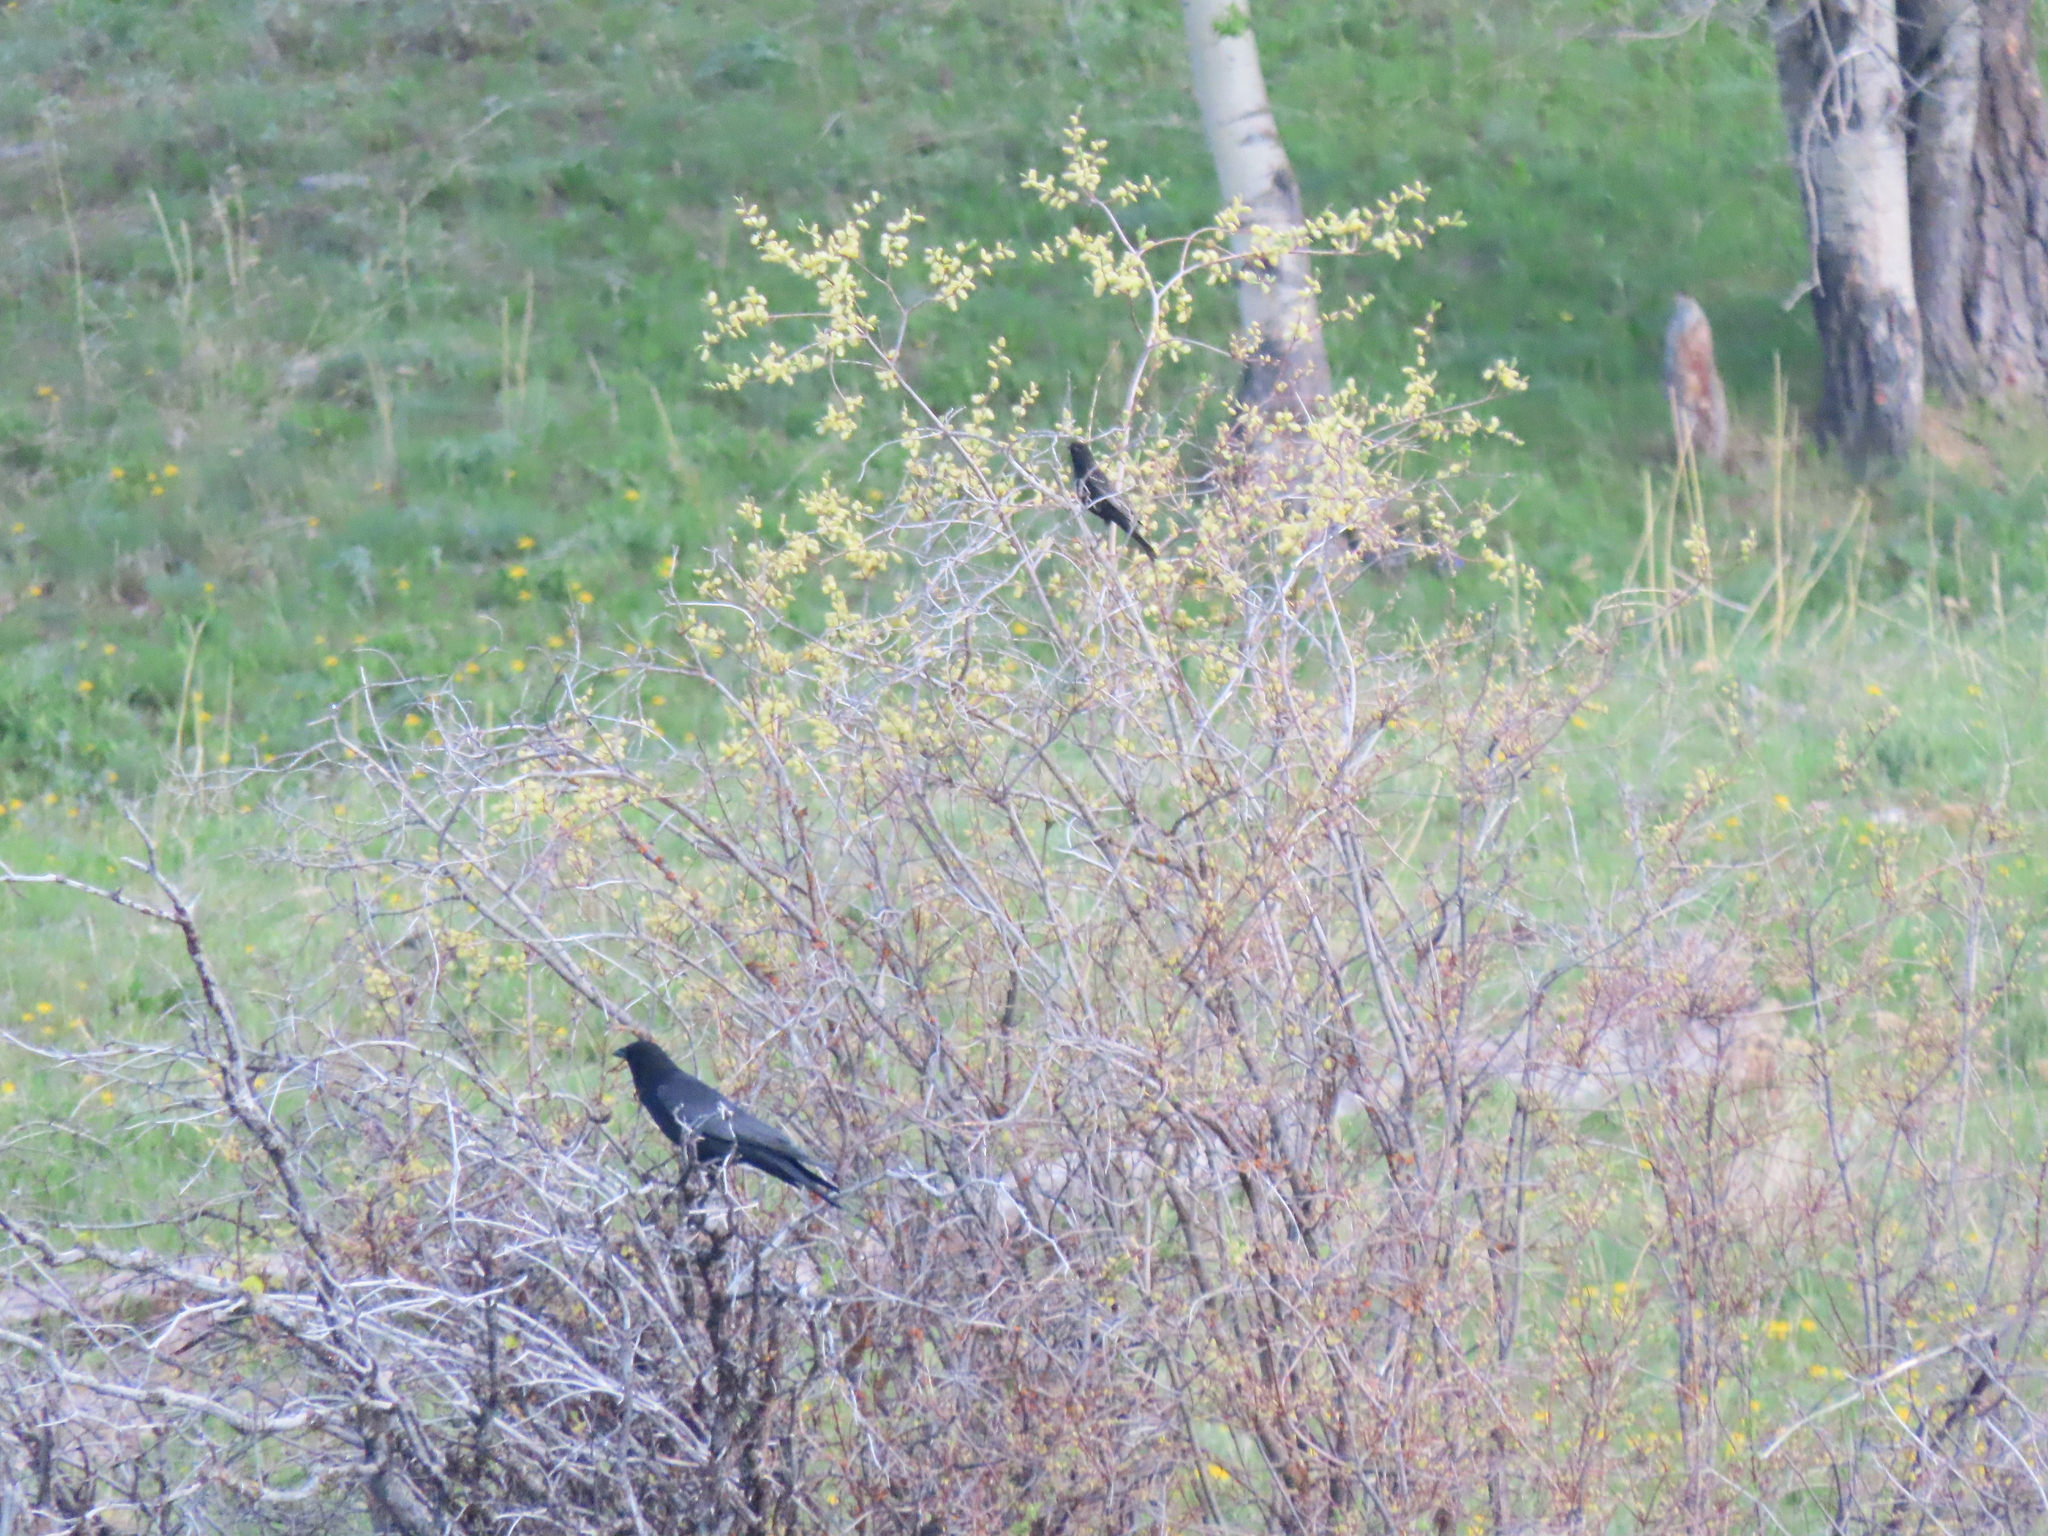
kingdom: Animalia
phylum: Chordata
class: Aves
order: Passeriformes
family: Passerellidae
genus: Pipilo
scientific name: Pipilo maculatus
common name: Spotted towhee
